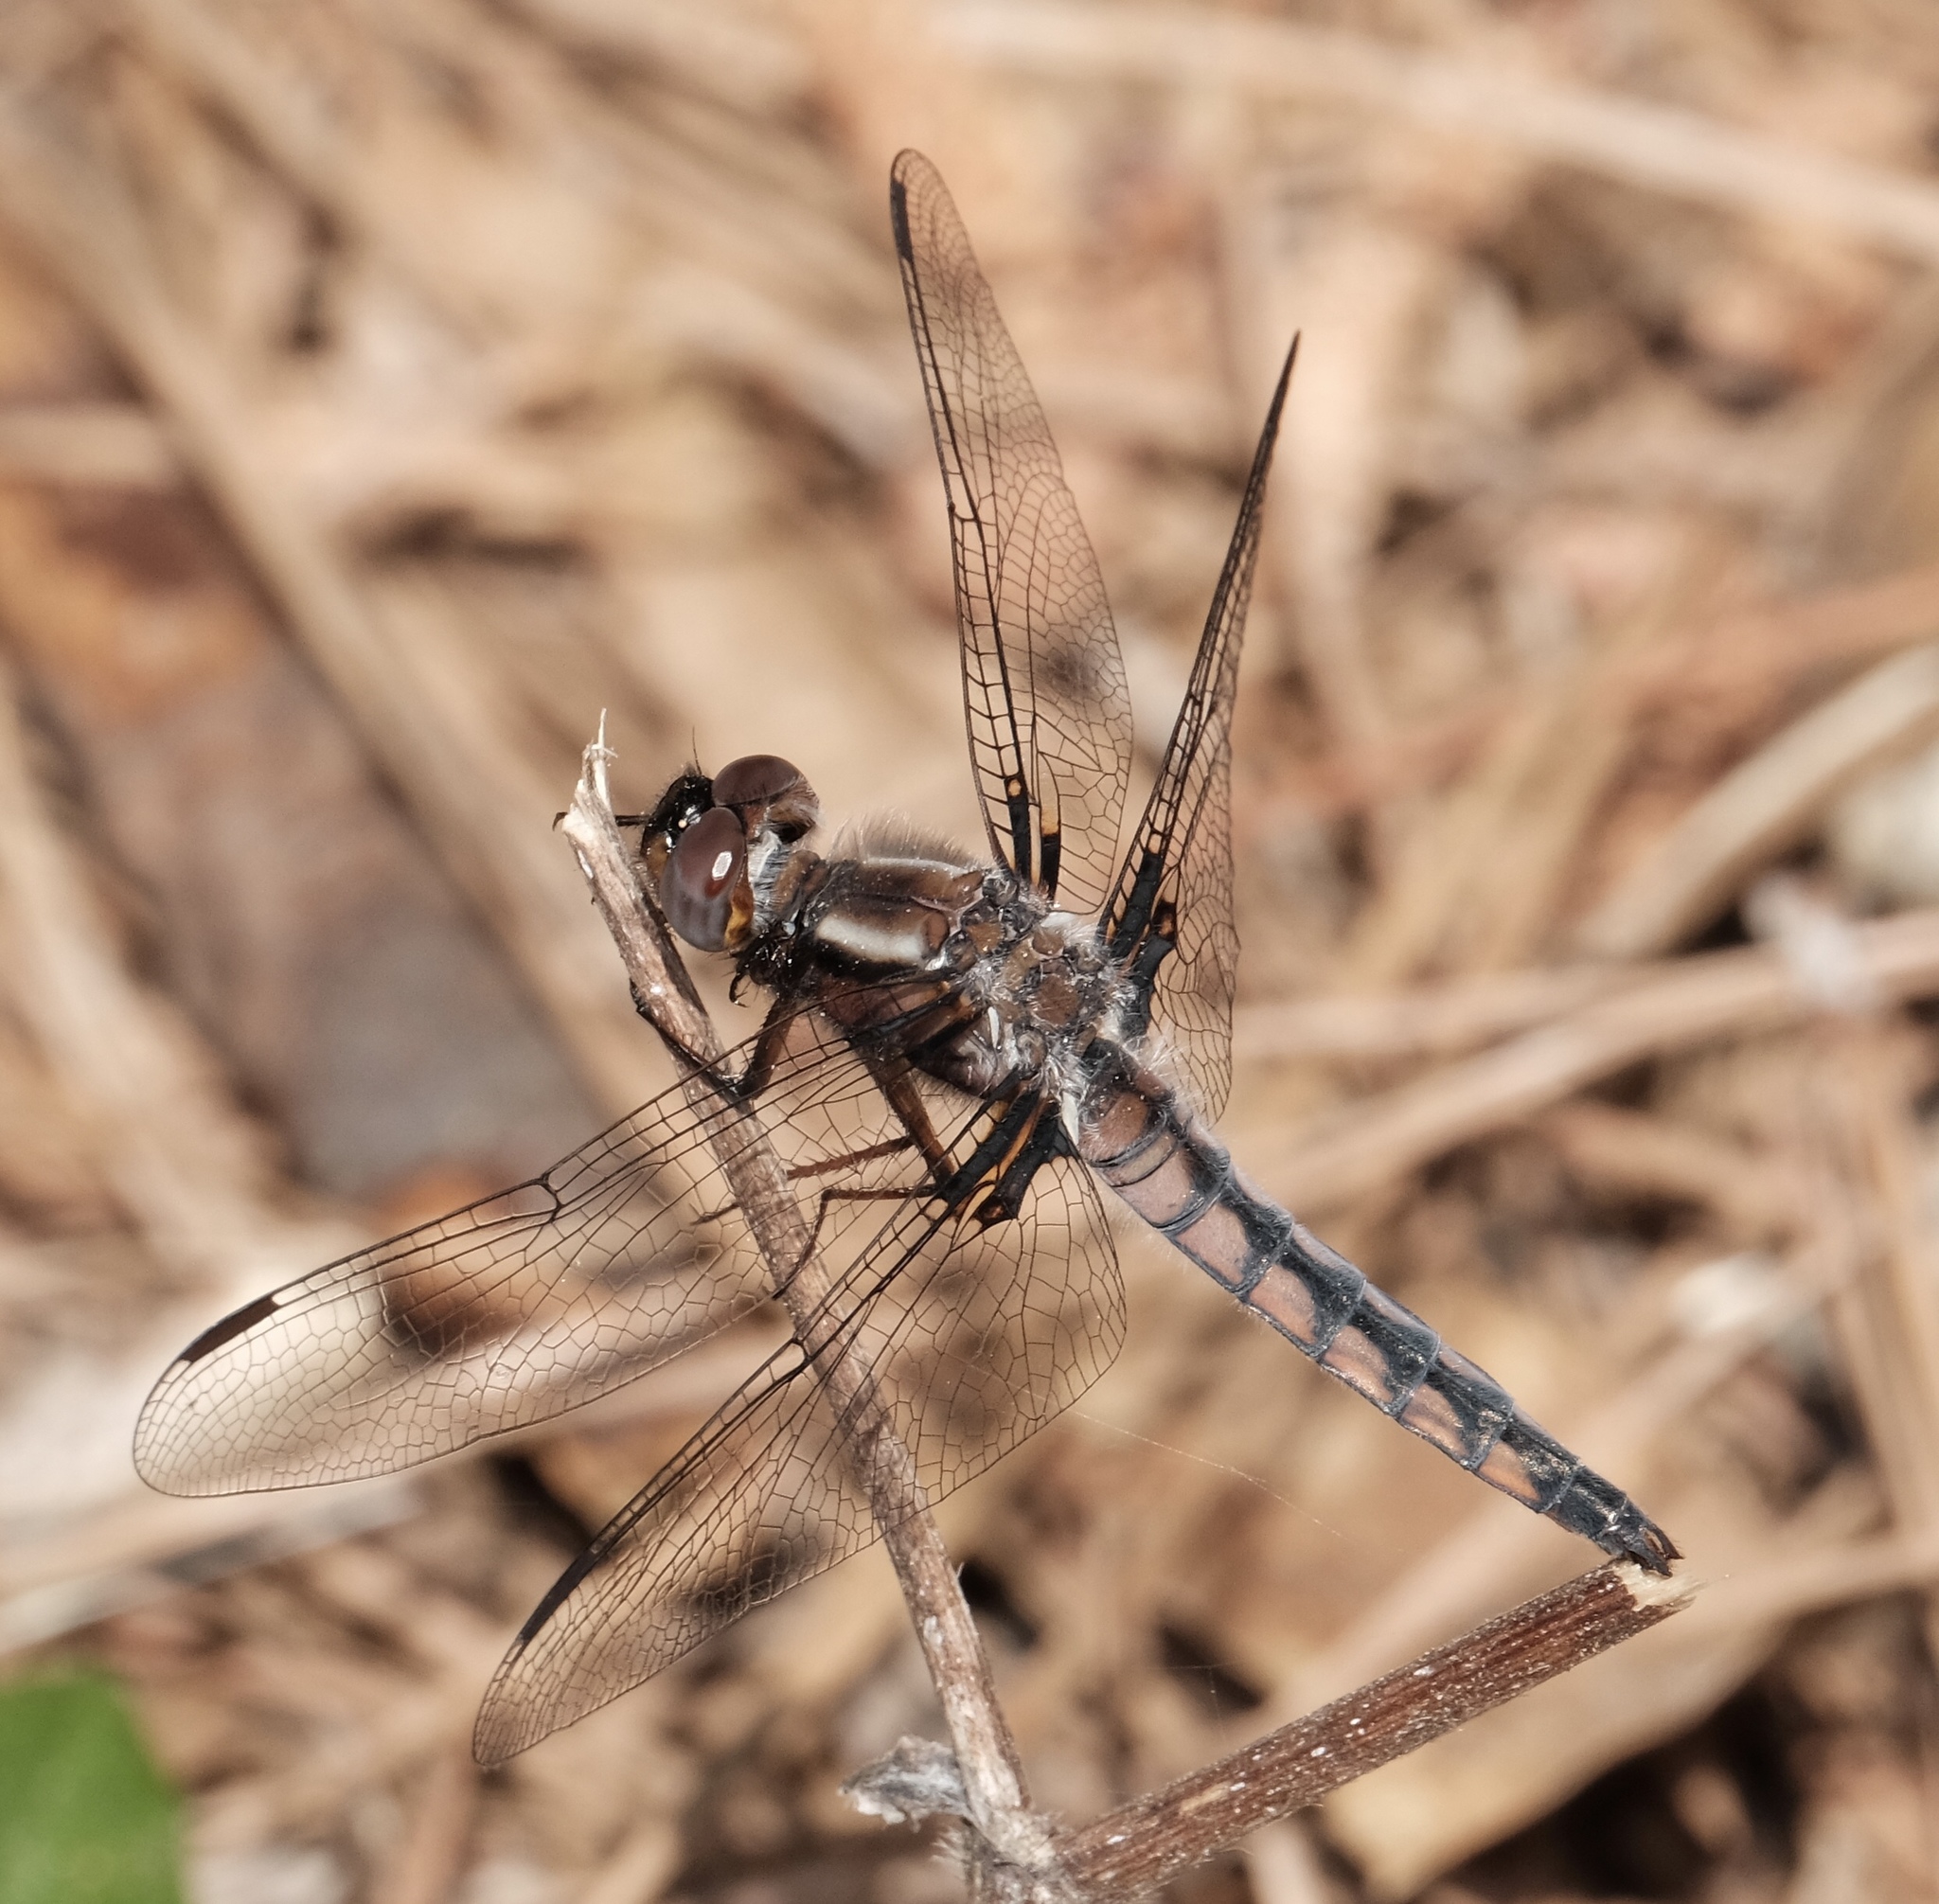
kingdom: Animalia
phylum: Arthropoda
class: Insecta
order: Odonata
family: Libellulidae
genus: Ladona
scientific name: Ladona deplanata
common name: Blue corporal
